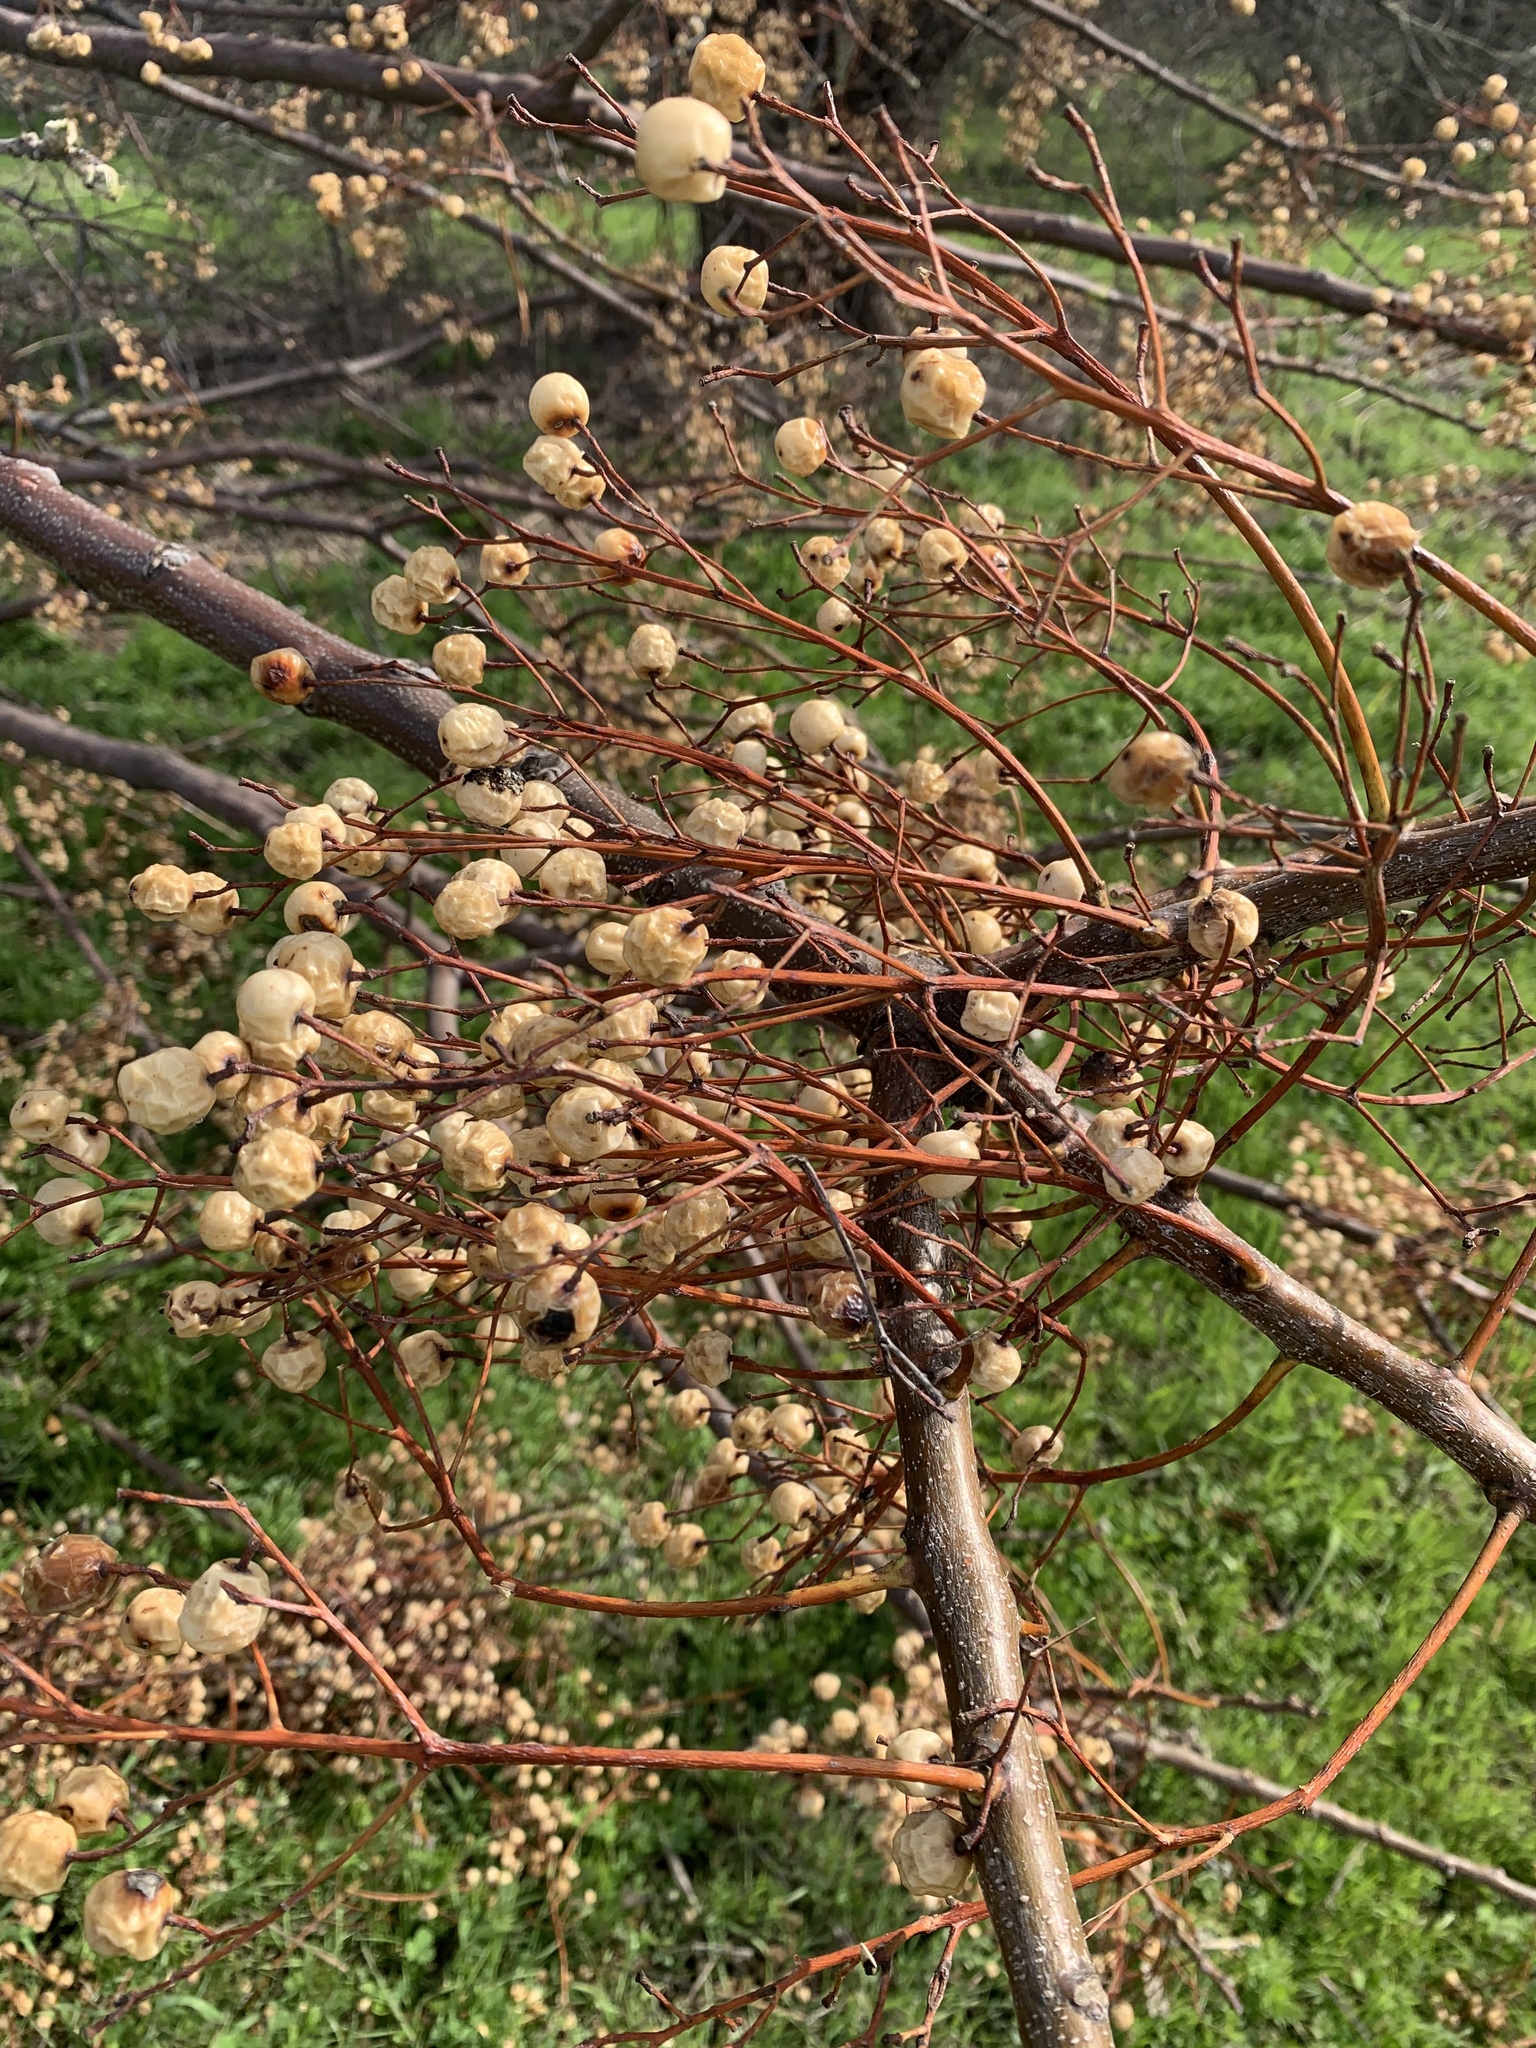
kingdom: Plantae
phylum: Tracheophyta
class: Magnoliopsida
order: Sapindales
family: Meliaceae
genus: Melia
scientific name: Melia azedarach
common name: Chinaberrytree
